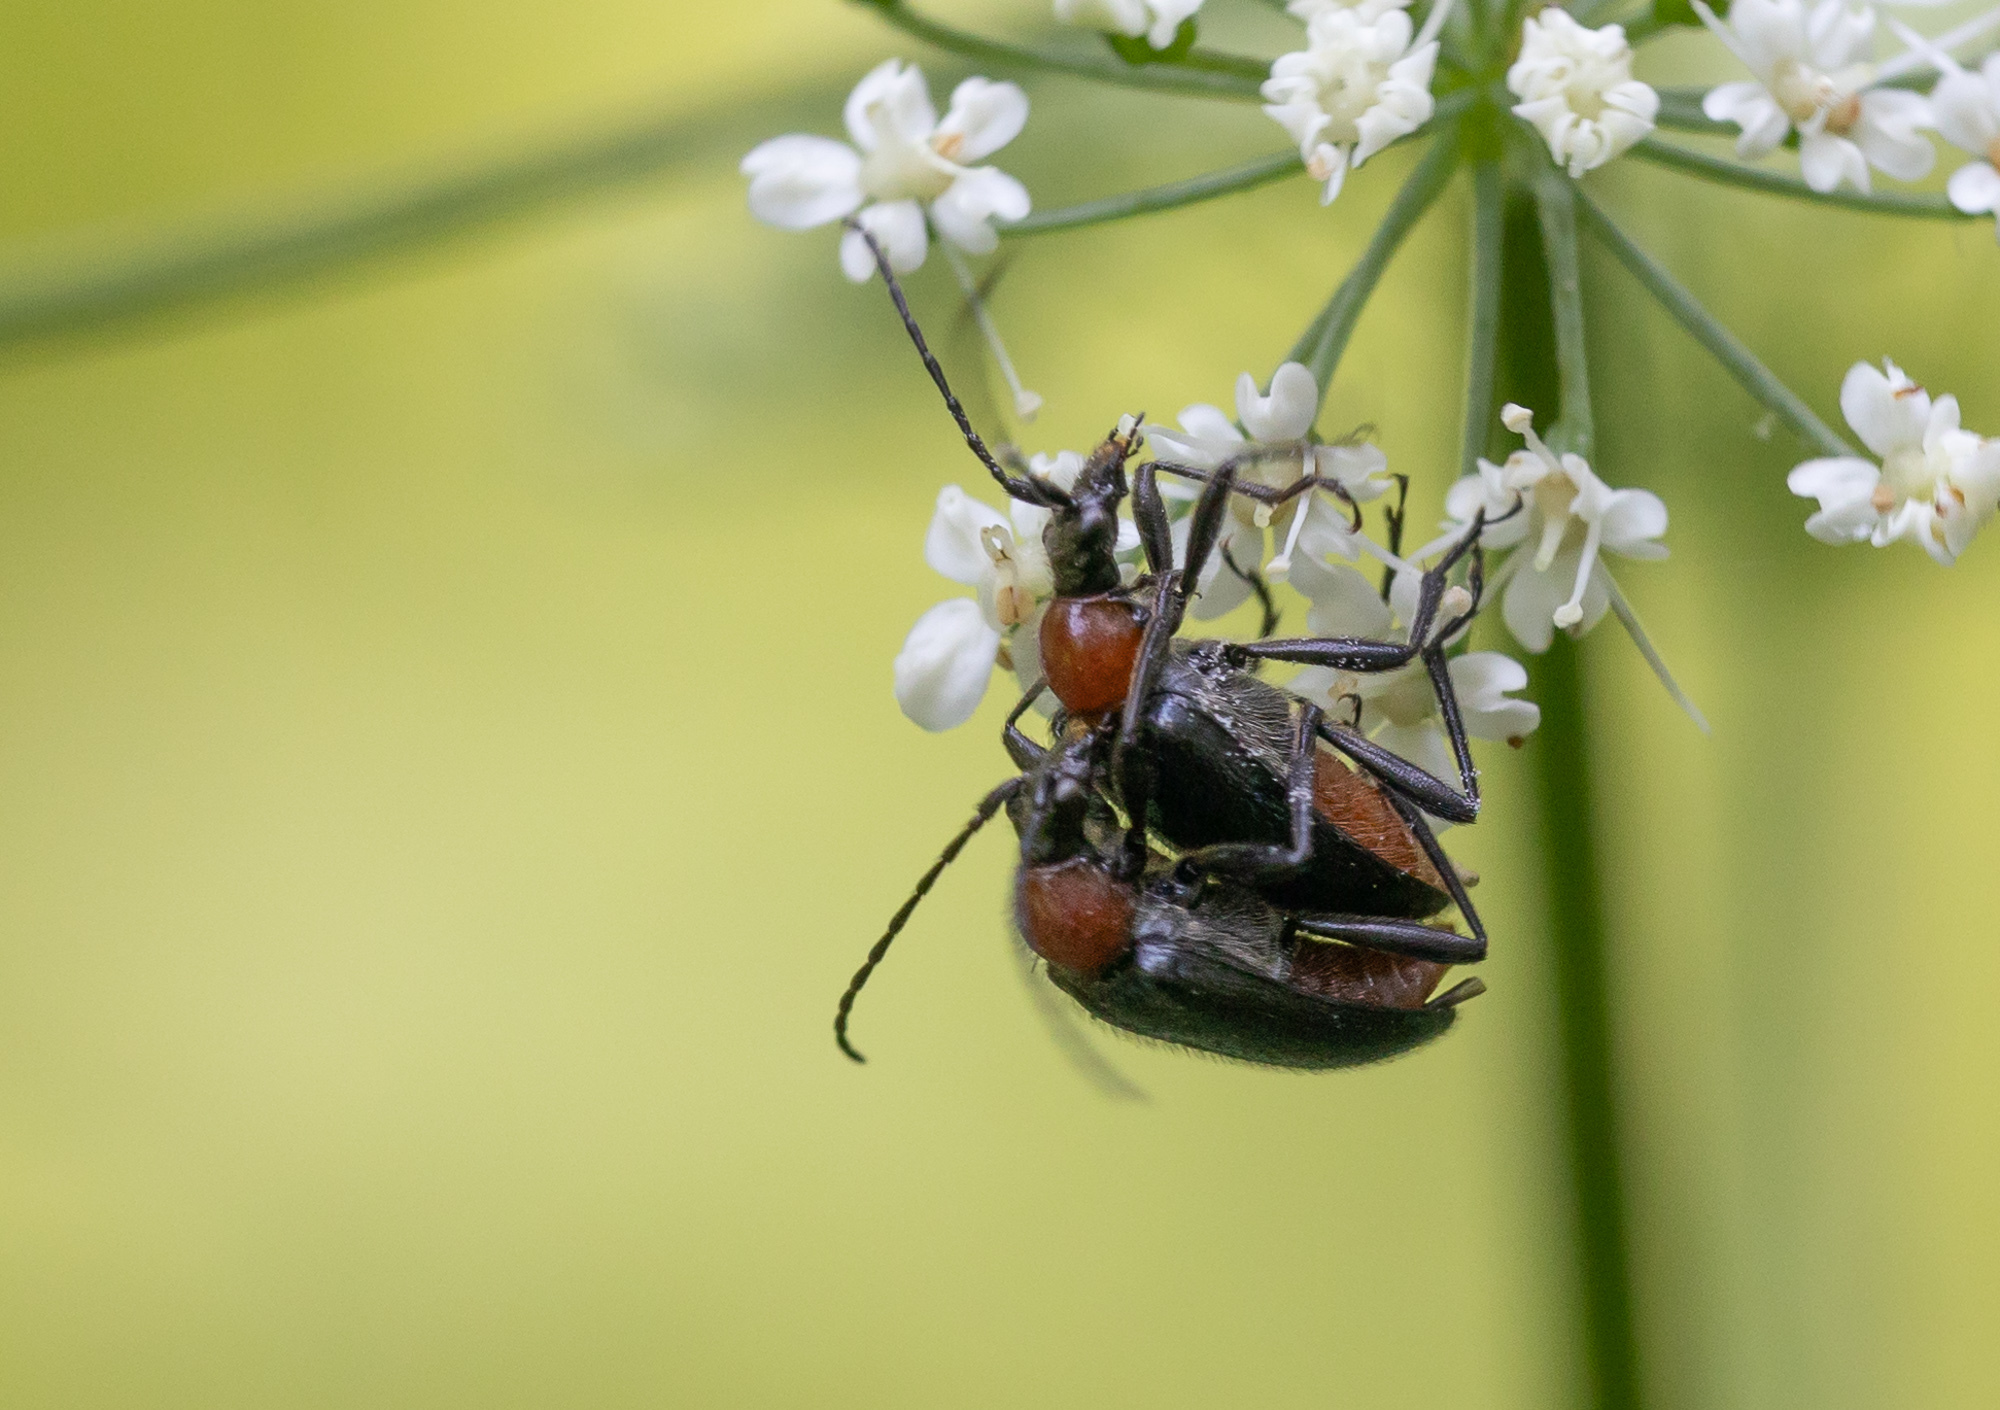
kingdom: Animalia
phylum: Arthropoda
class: Insecta
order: Coleoptera
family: Cerambycidae
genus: Dinoptera
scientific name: Dinoptera collaris
